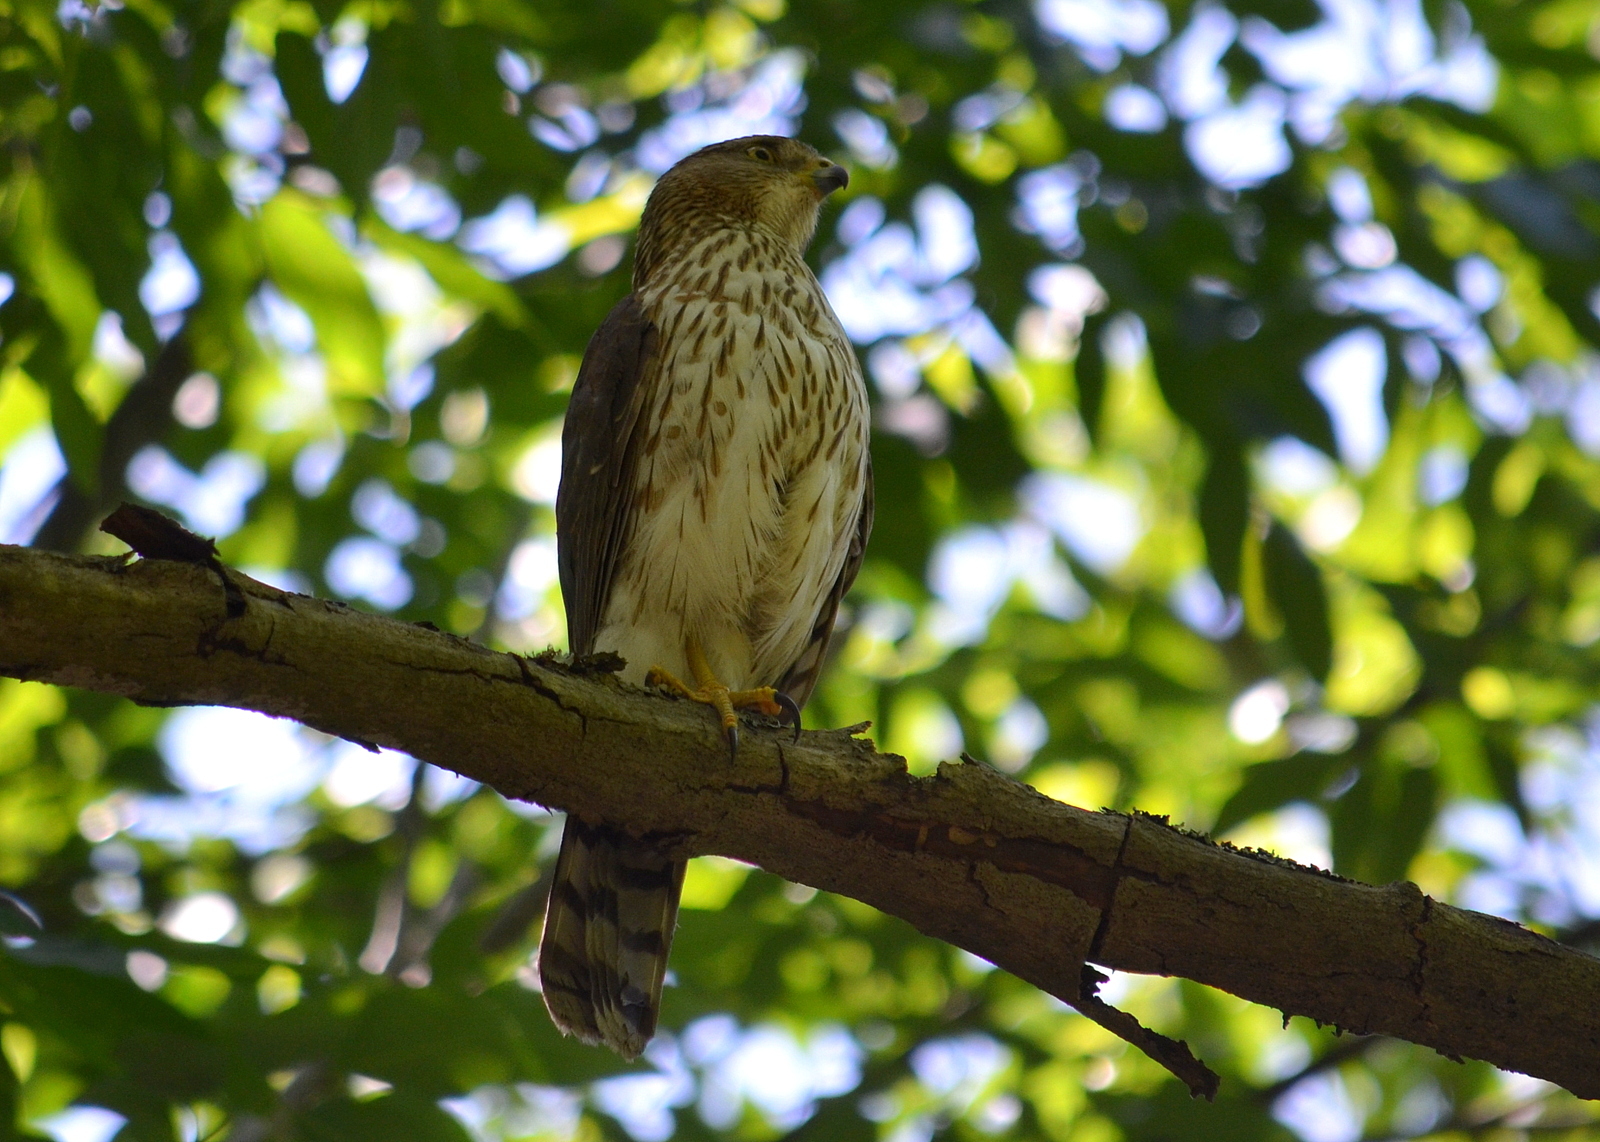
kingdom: Animalia
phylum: Chordata
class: Aves
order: Accipitriformes
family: Accipitridae
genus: Accipiter
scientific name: Accipiter cooperii
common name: Cooper's hawk
